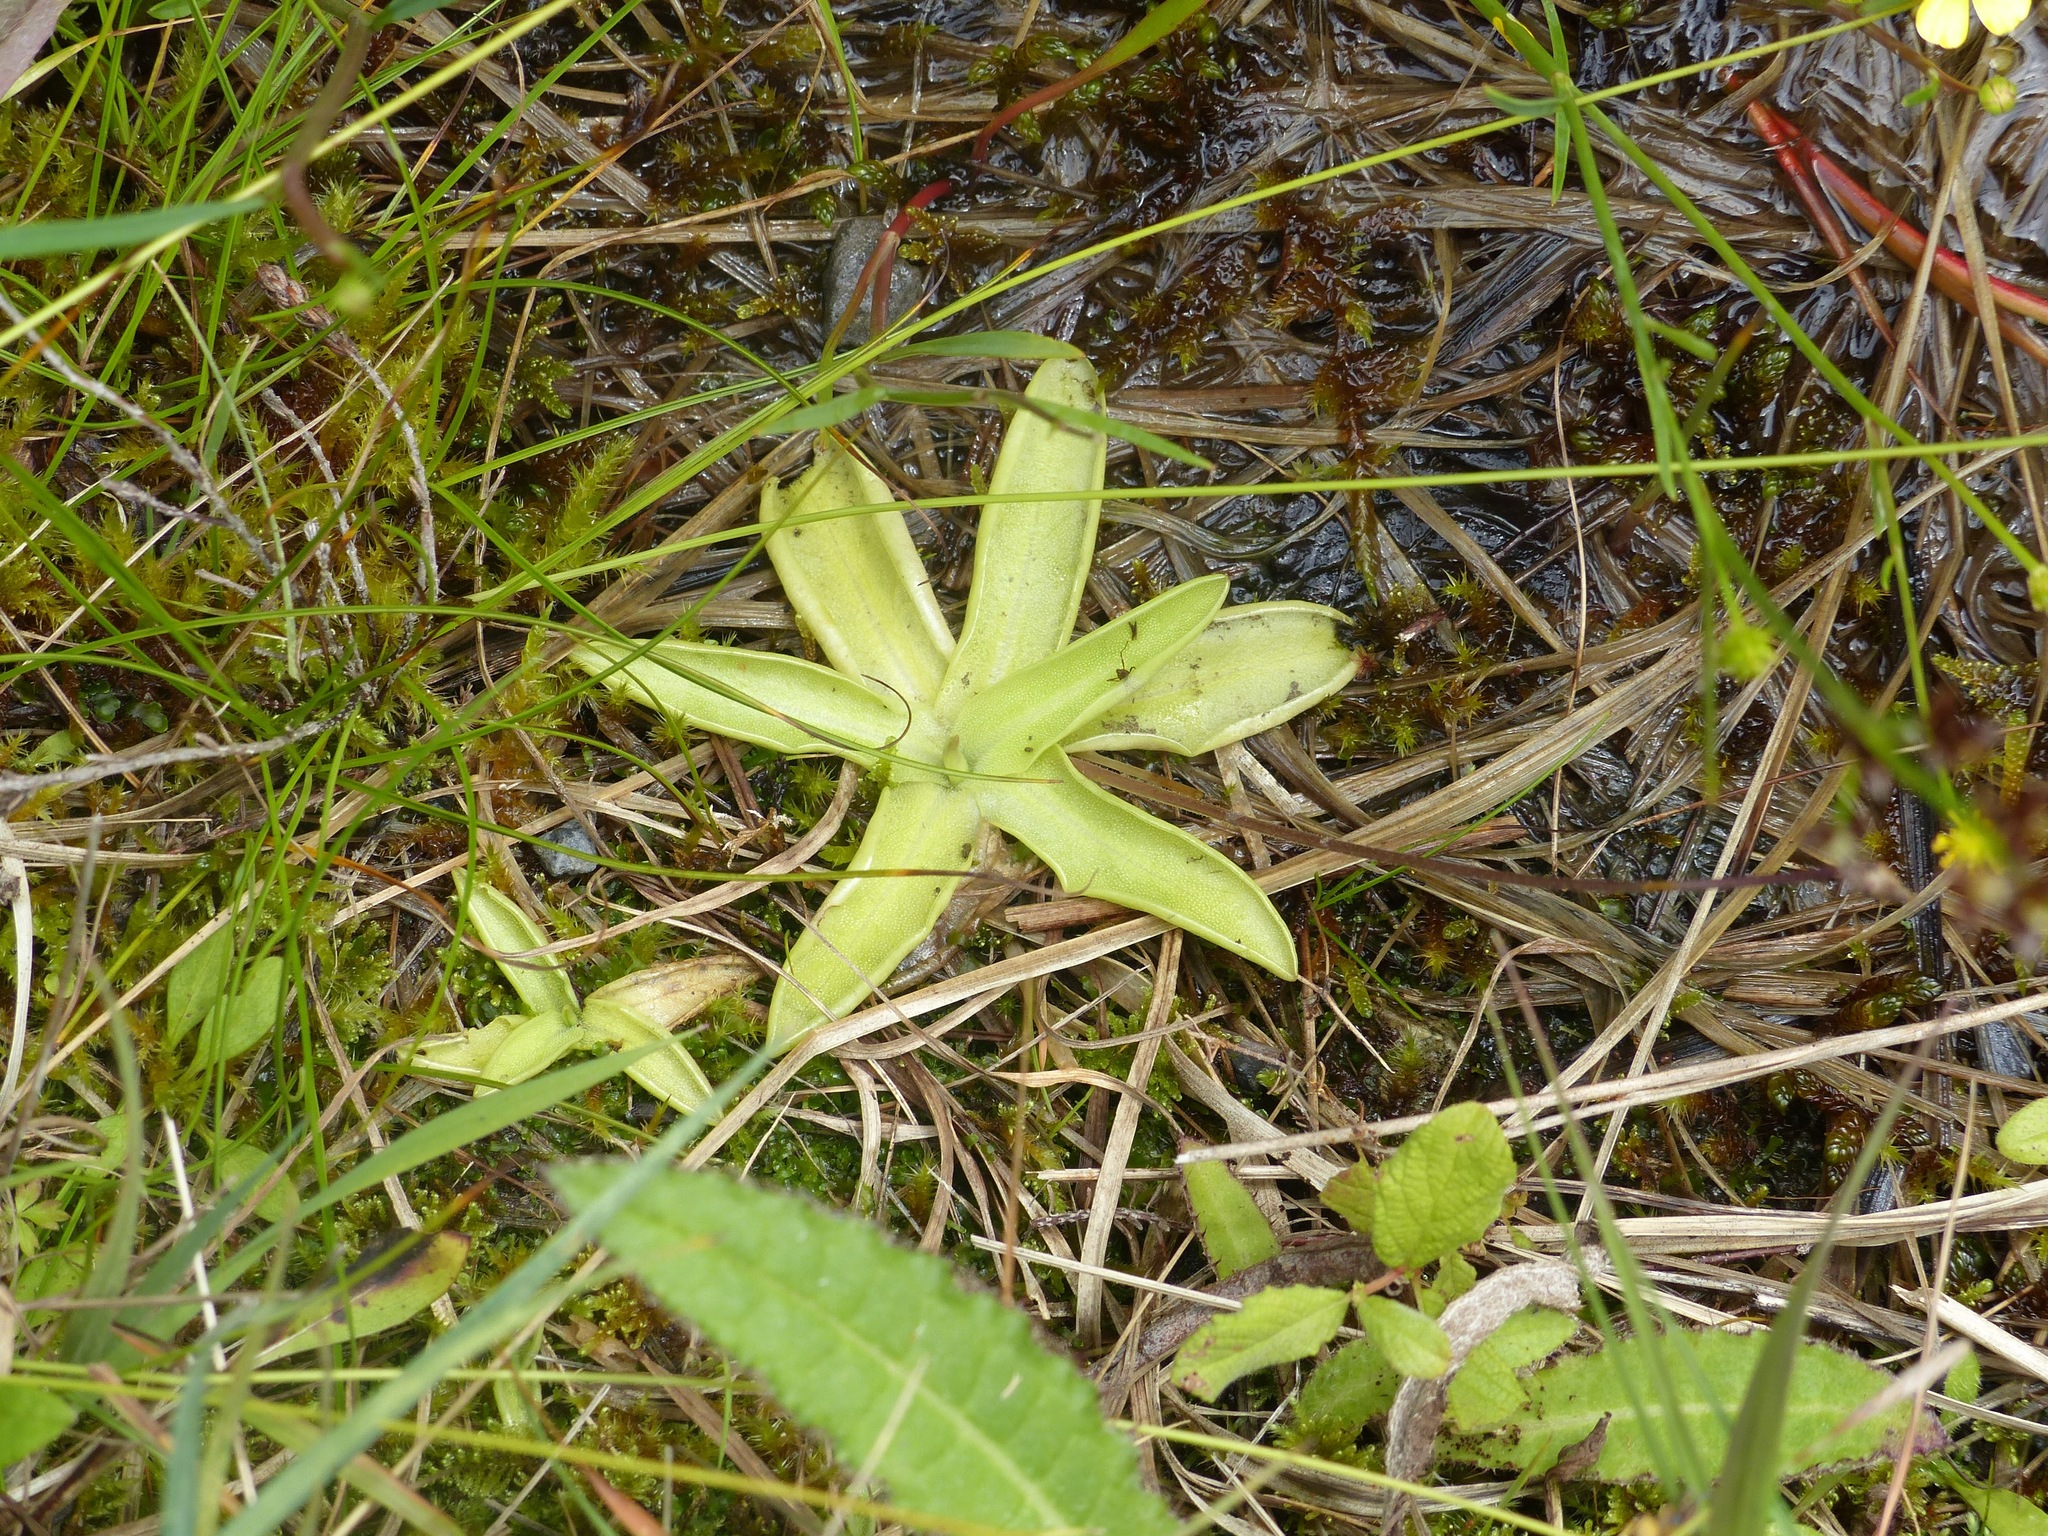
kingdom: Plantae
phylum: Tracheophyta
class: Magnoliopsida
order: Lamiales
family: Lentibulariaceae
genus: Pinguicula
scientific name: Pinguicula vulgaris
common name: Common butterwort
